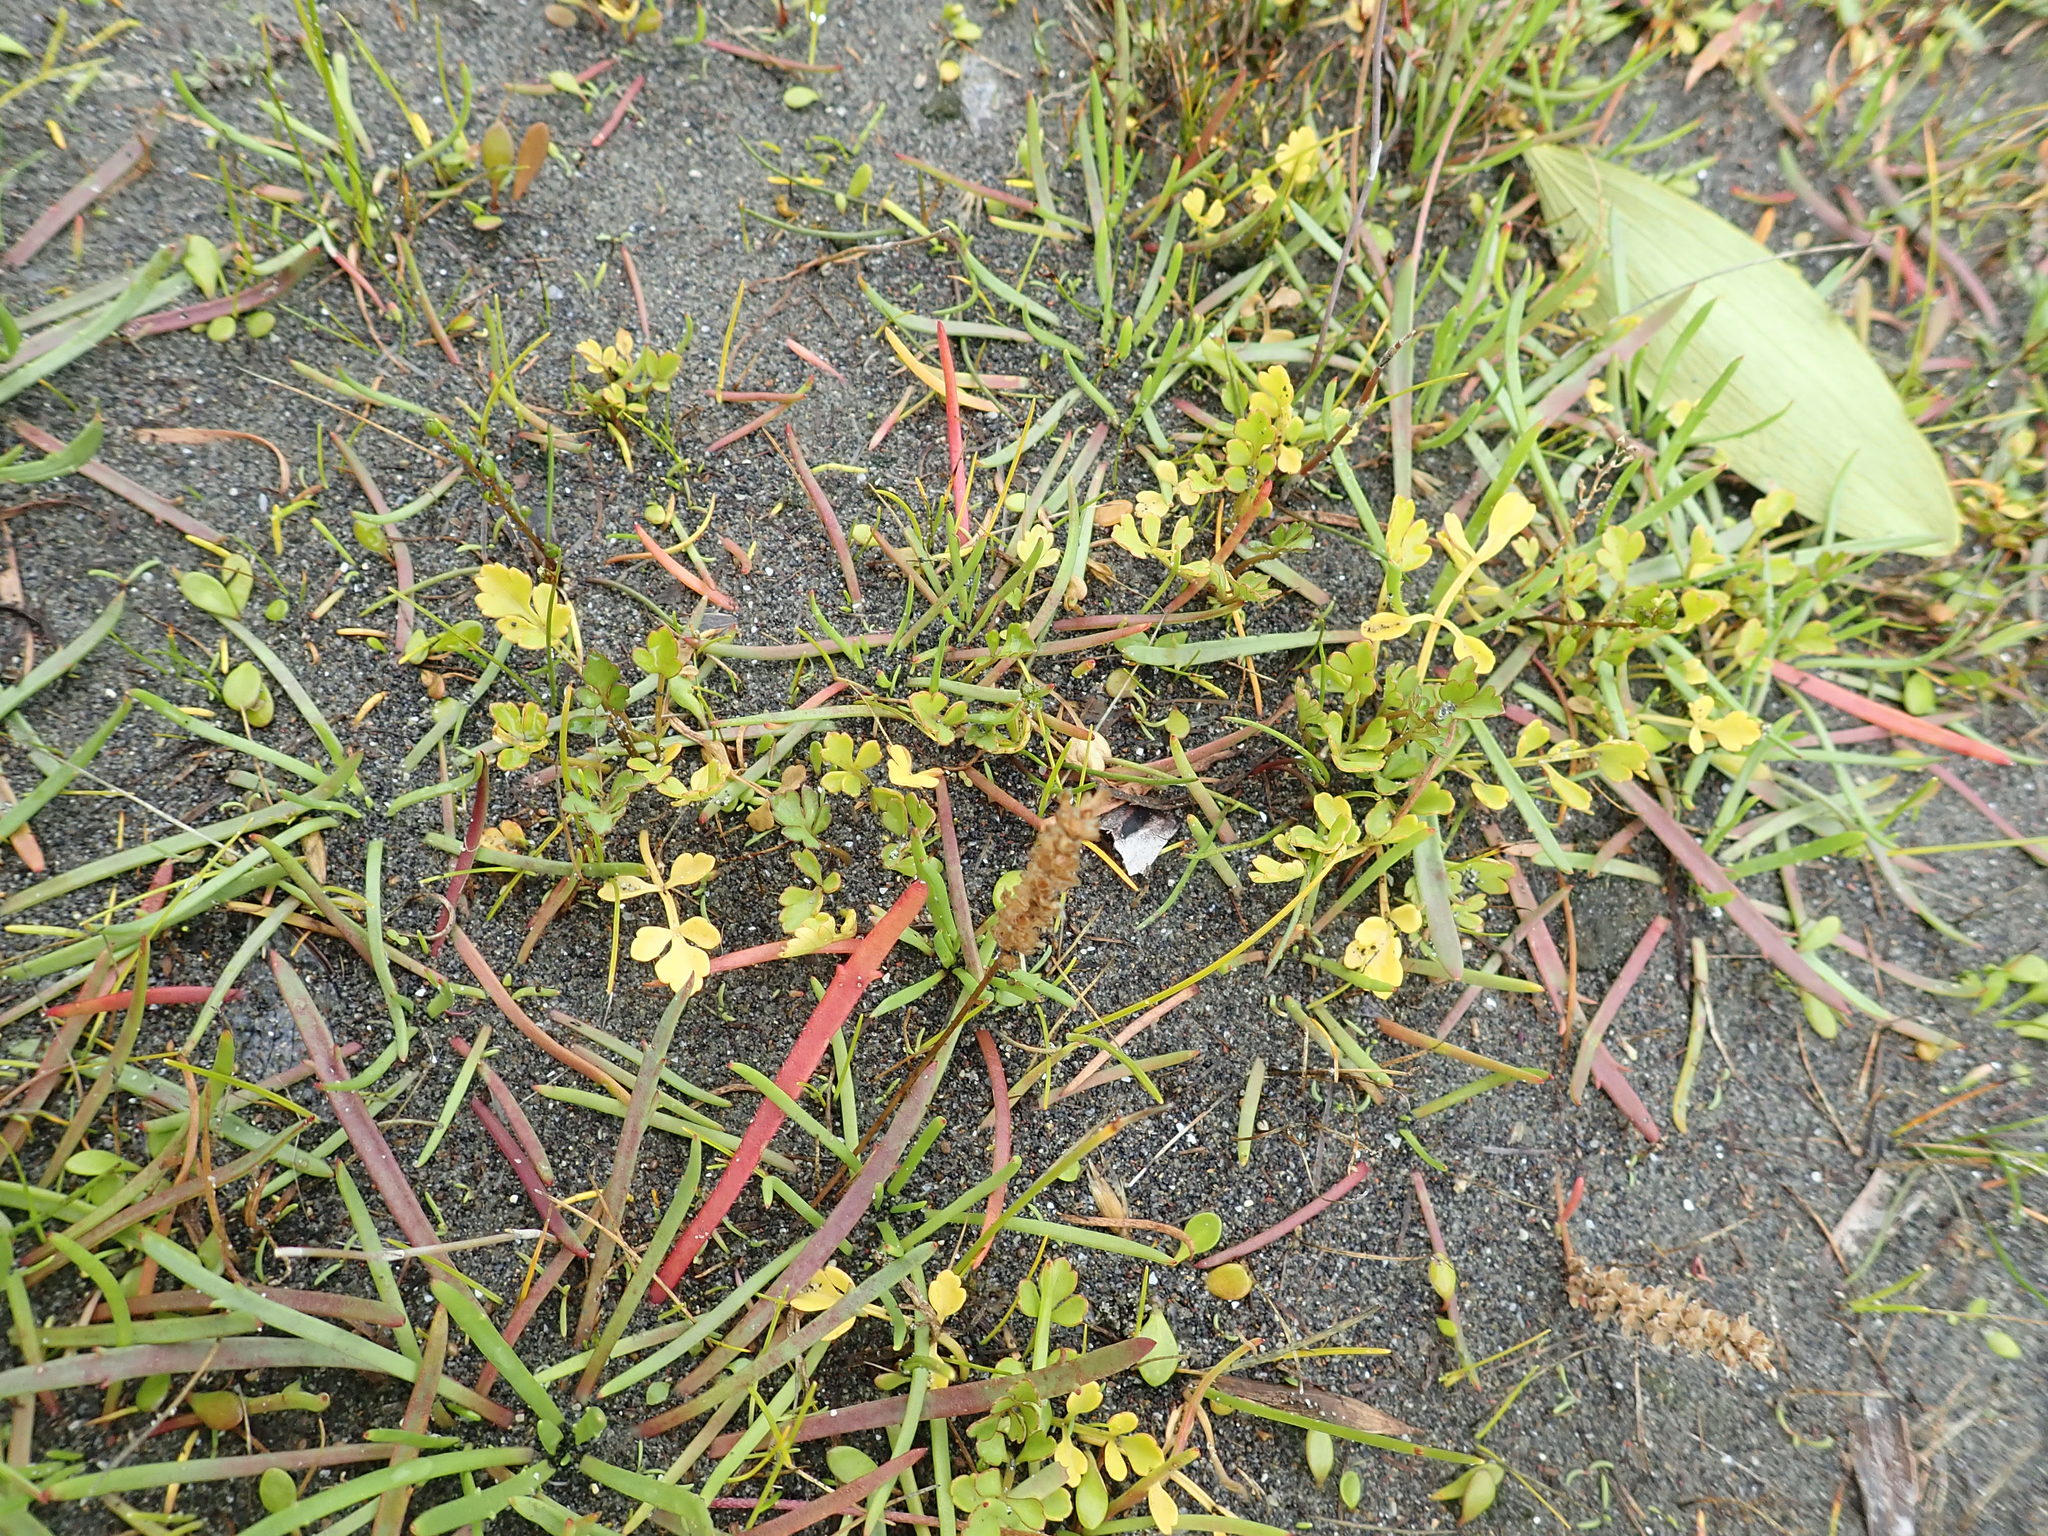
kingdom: Plantae
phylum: Tracheophyta
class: Magnoliopsida
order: Apiales
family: Apiaceae
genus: Apium
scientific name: Apium prostratum
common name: Prostrate marshwort
